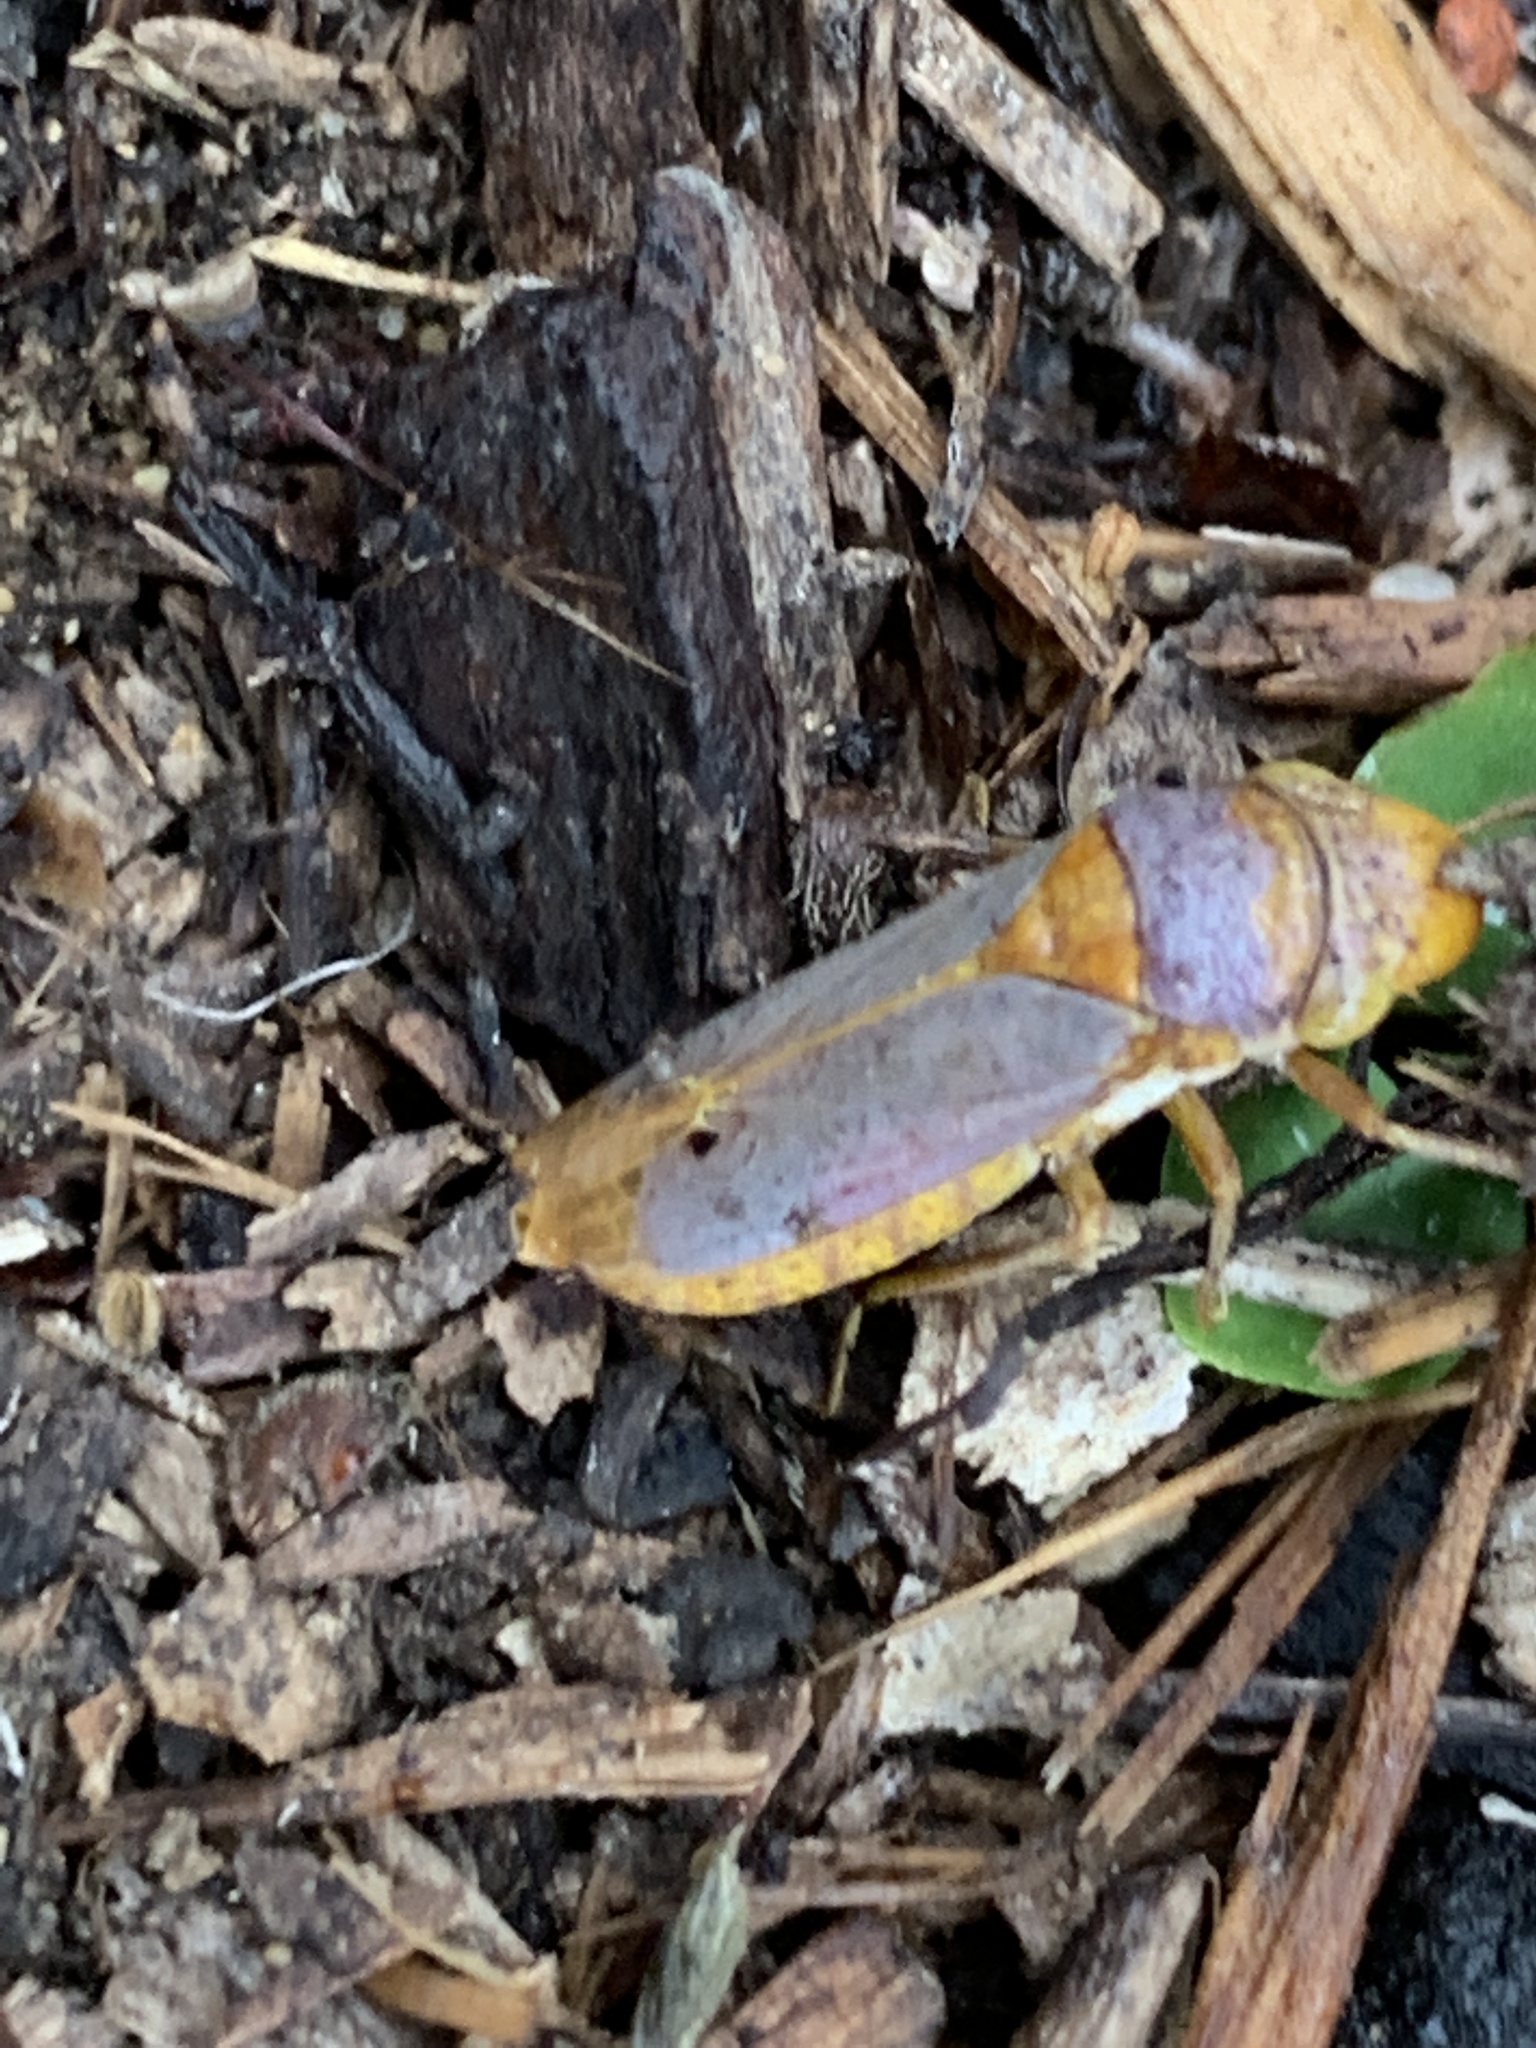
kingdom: Animalia
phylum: Arthropoda
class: Insecta
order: Hemiptera
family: Cicadellidae
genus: Oncometopia
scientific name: Oncometopia hamiltoni
